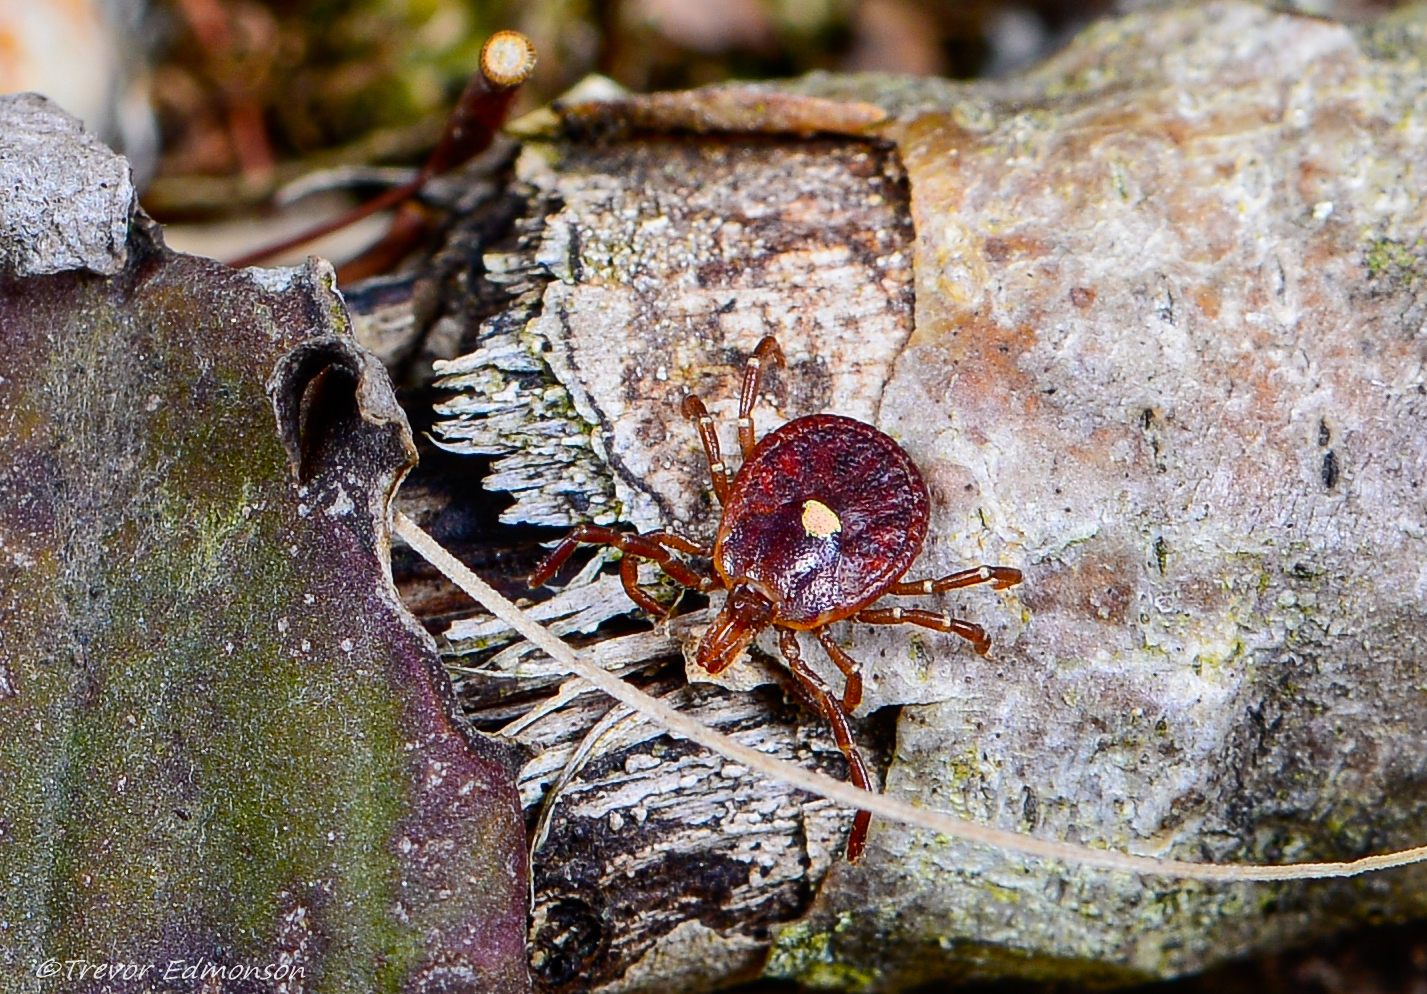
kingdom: Animalia
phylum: Arthropoda
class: Arachnida
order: Ixodida
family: Ixodidae
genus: Amblyomma
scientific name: Amblyomma americanum
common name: Lone star tick
